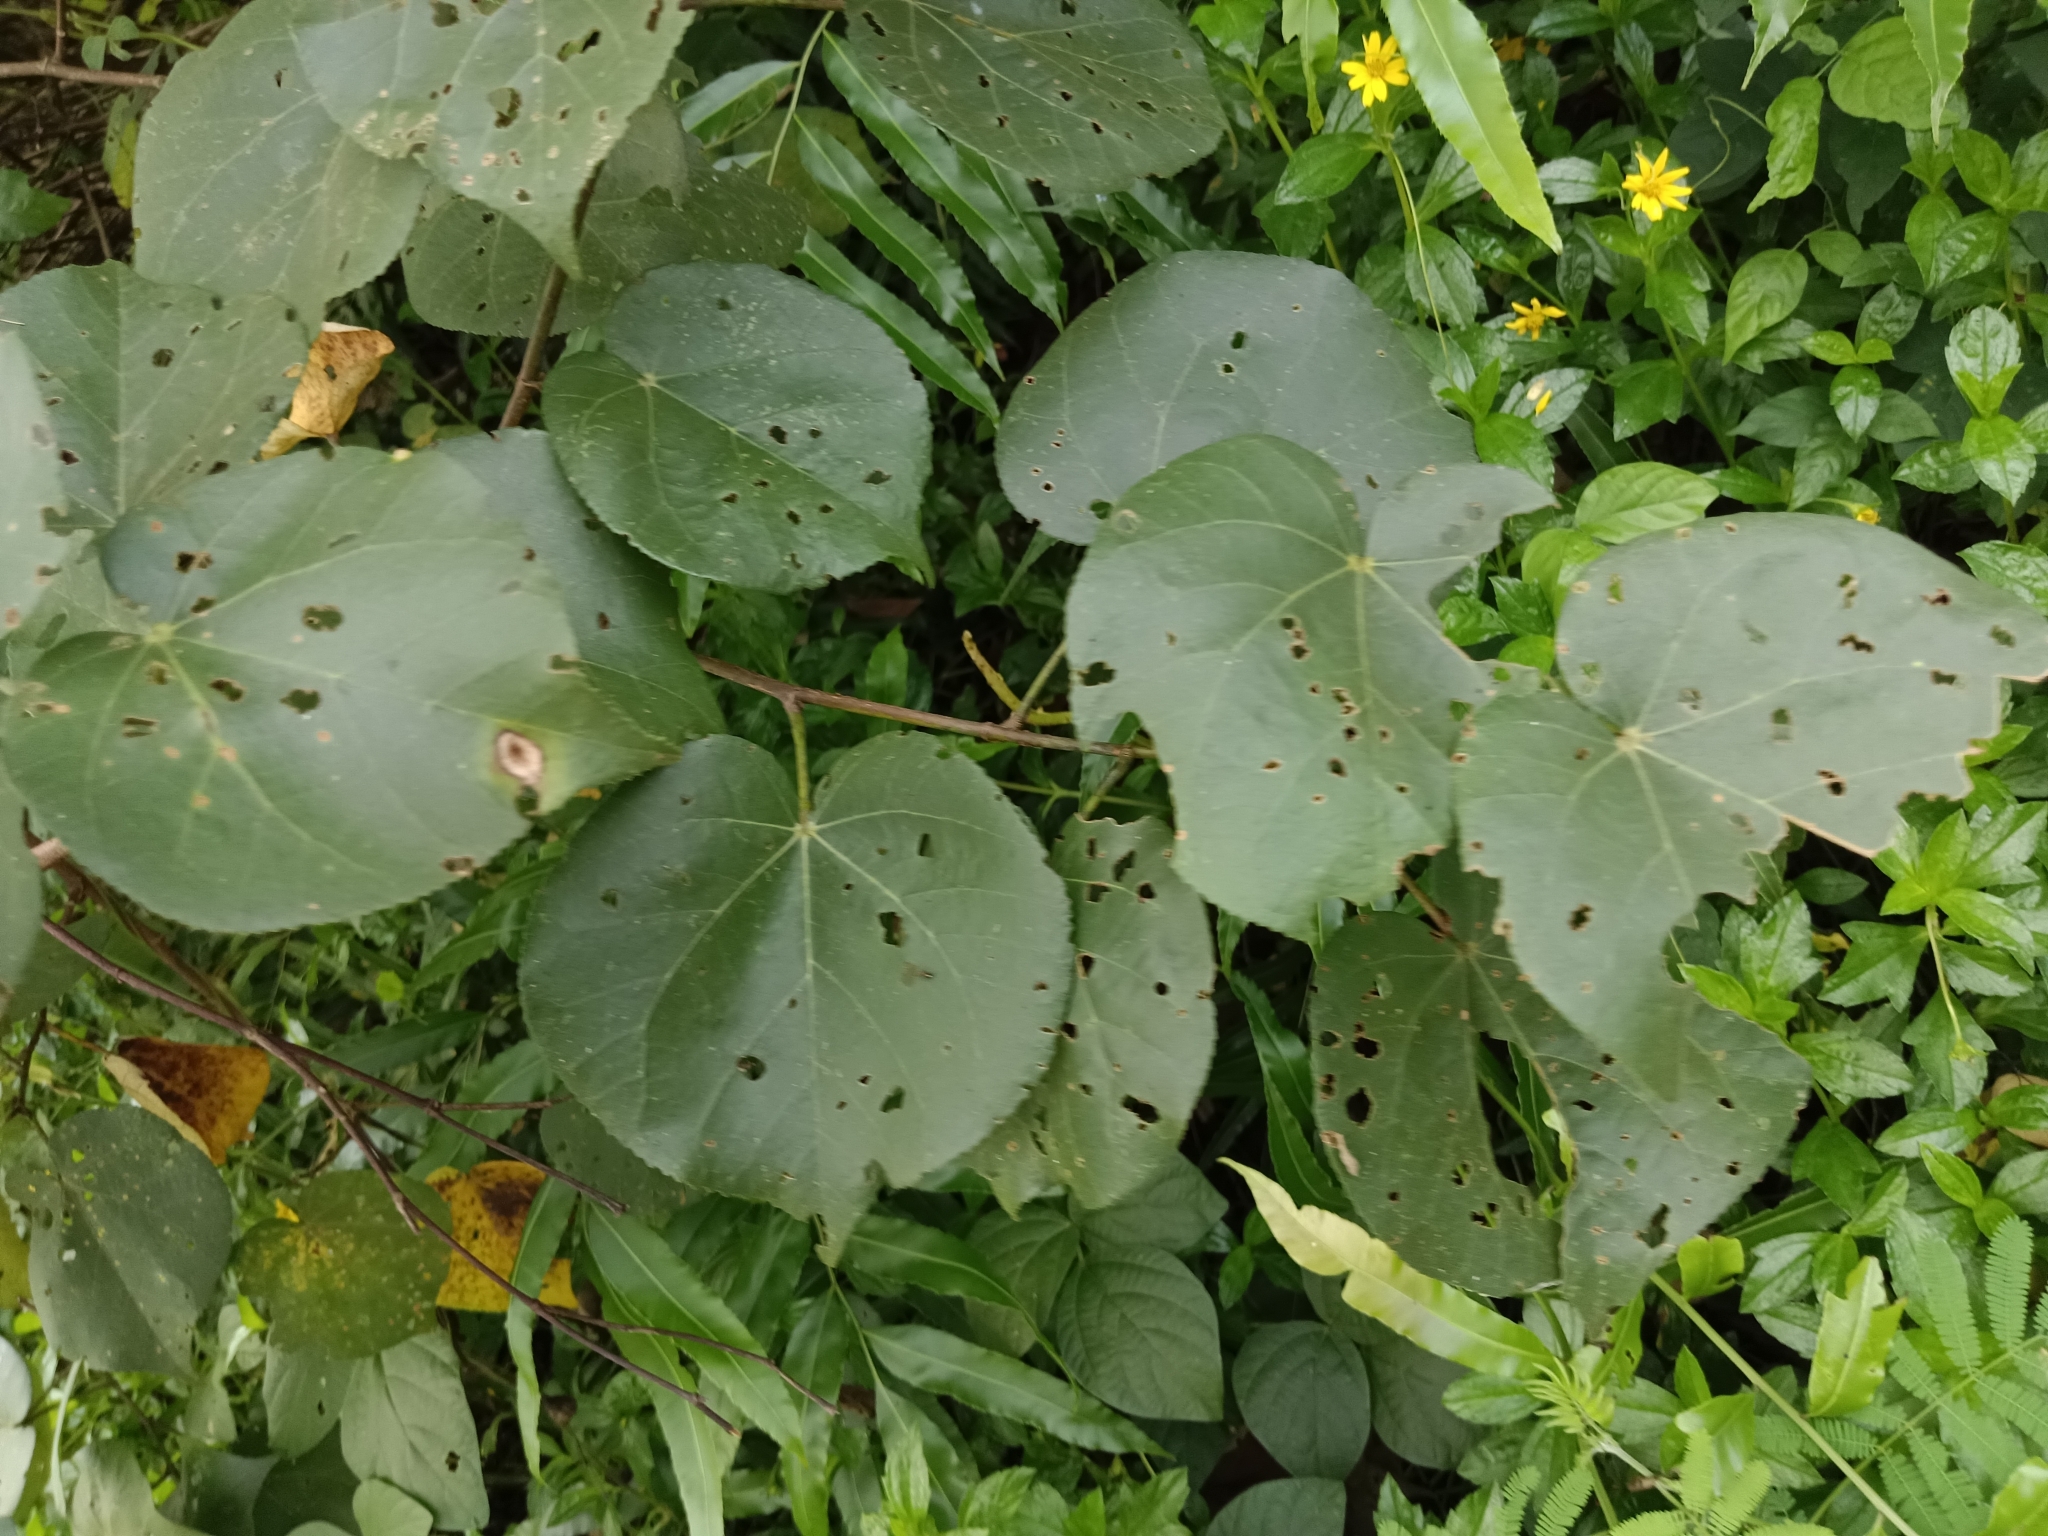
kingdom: Plantae
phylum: Tracheophyta
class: Magnoliopsida
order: Malvales
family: Malvaceae
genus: Talipariti
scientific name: Talipariti tiliaceum
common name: Sea hibiscus
